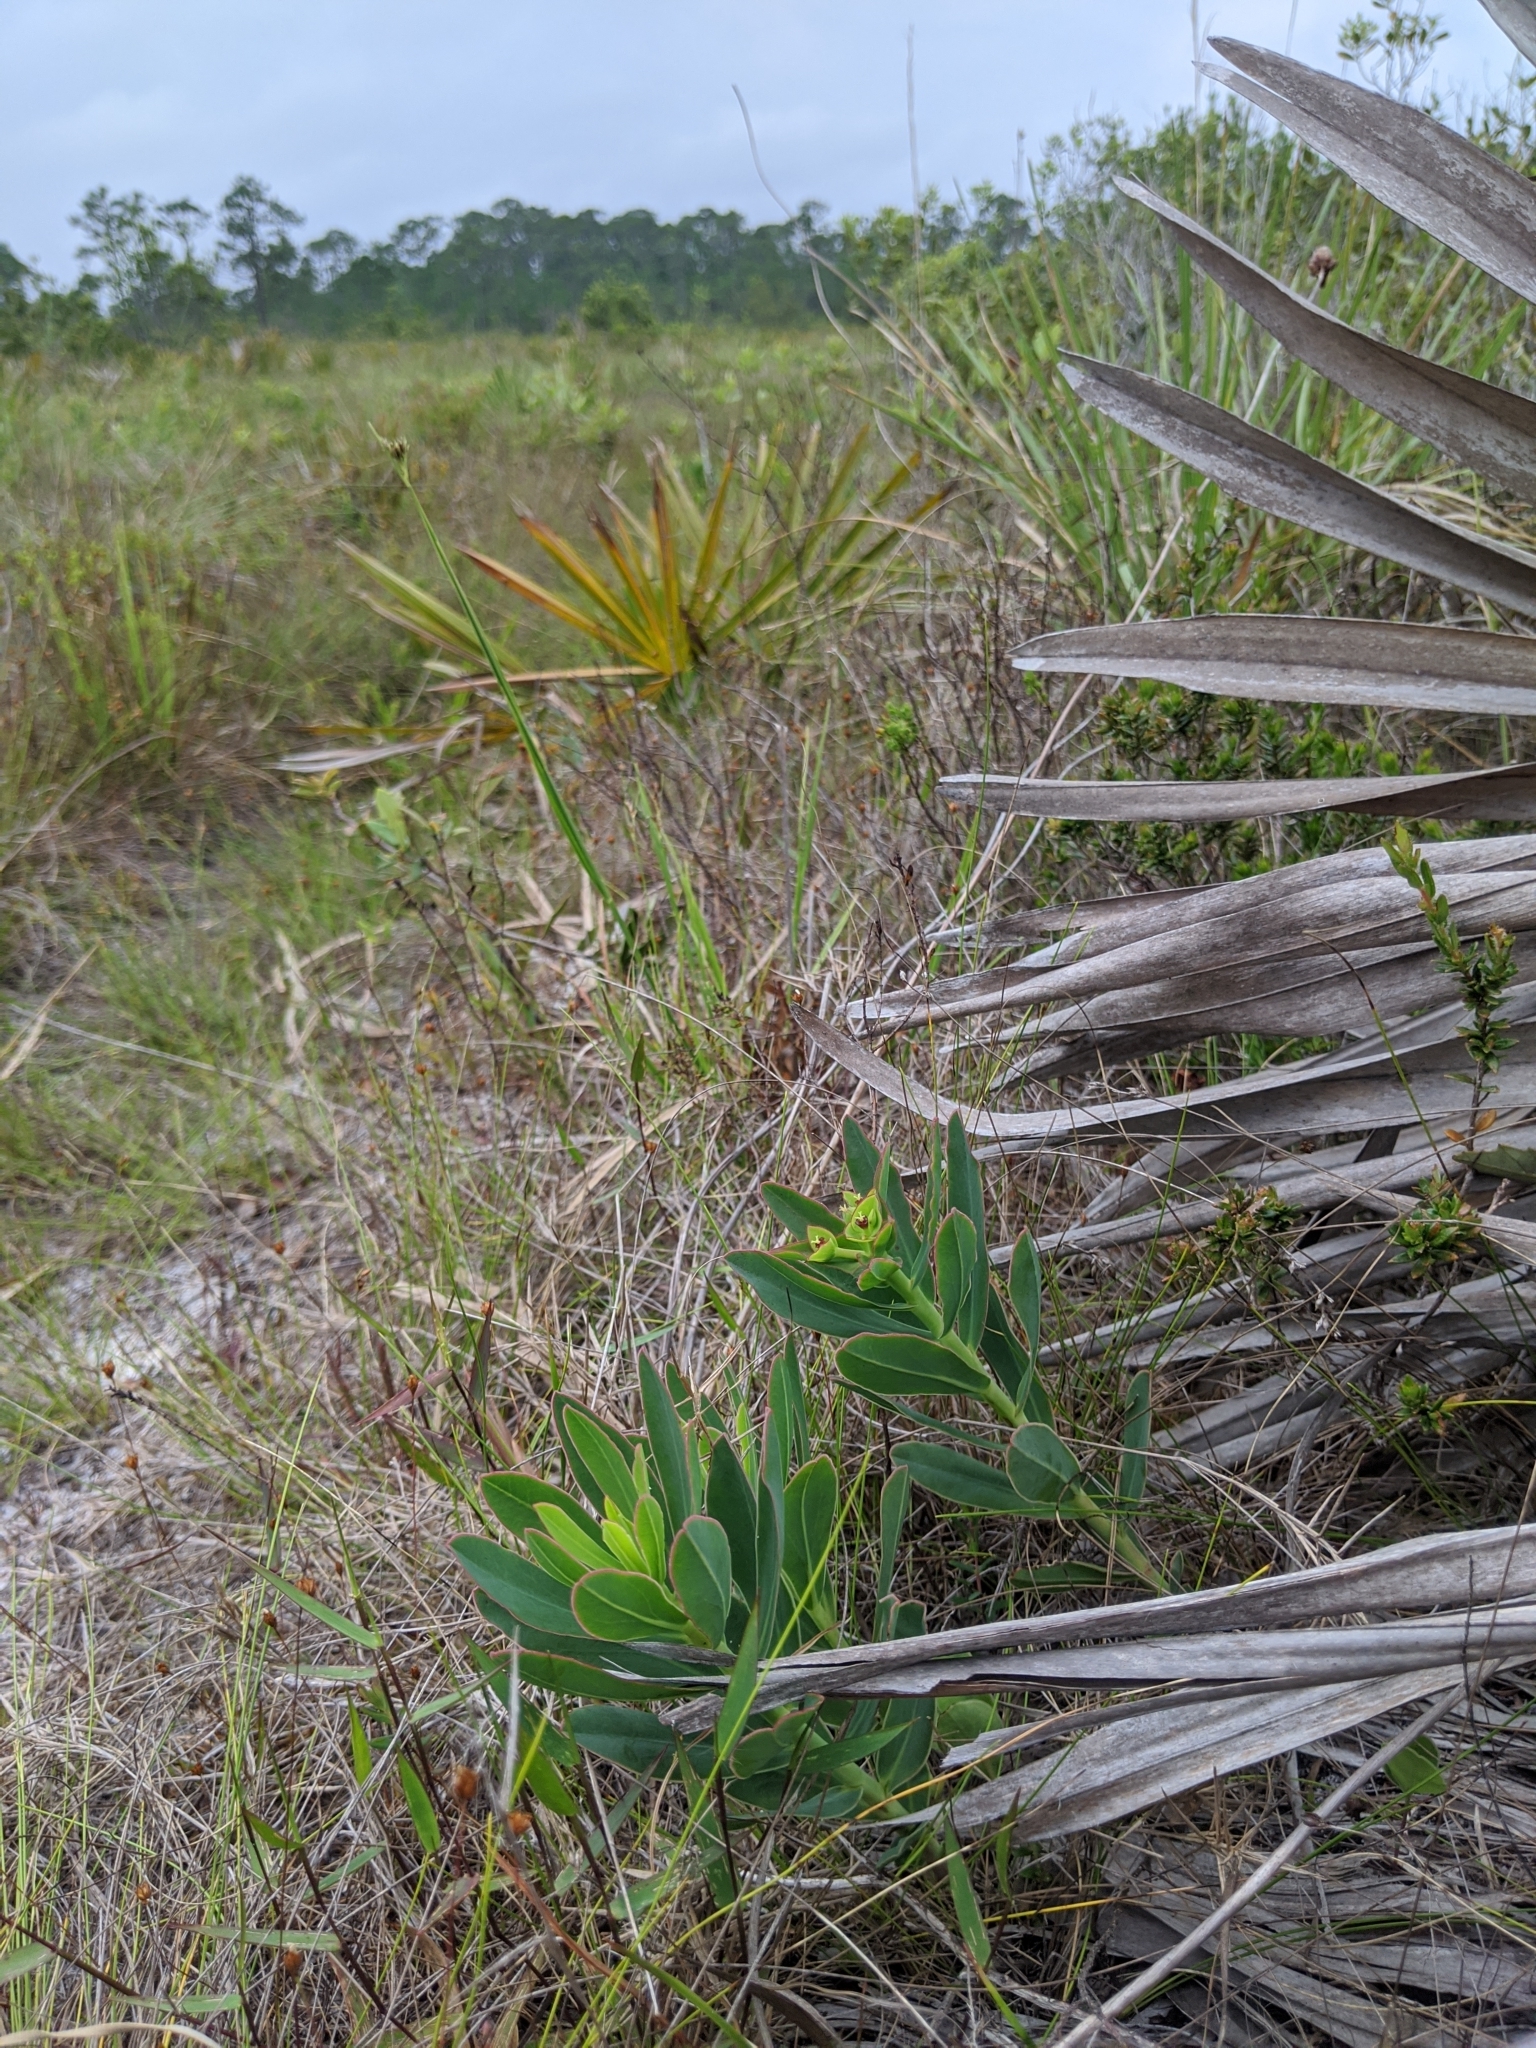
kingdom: Plantae
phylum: Tracheophyta
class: Magnoliopsida
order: Malpighiales
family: Euphorbiaceae
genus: Euphorbia
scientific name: Euphorbia telephioides
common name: Telephus spurge
